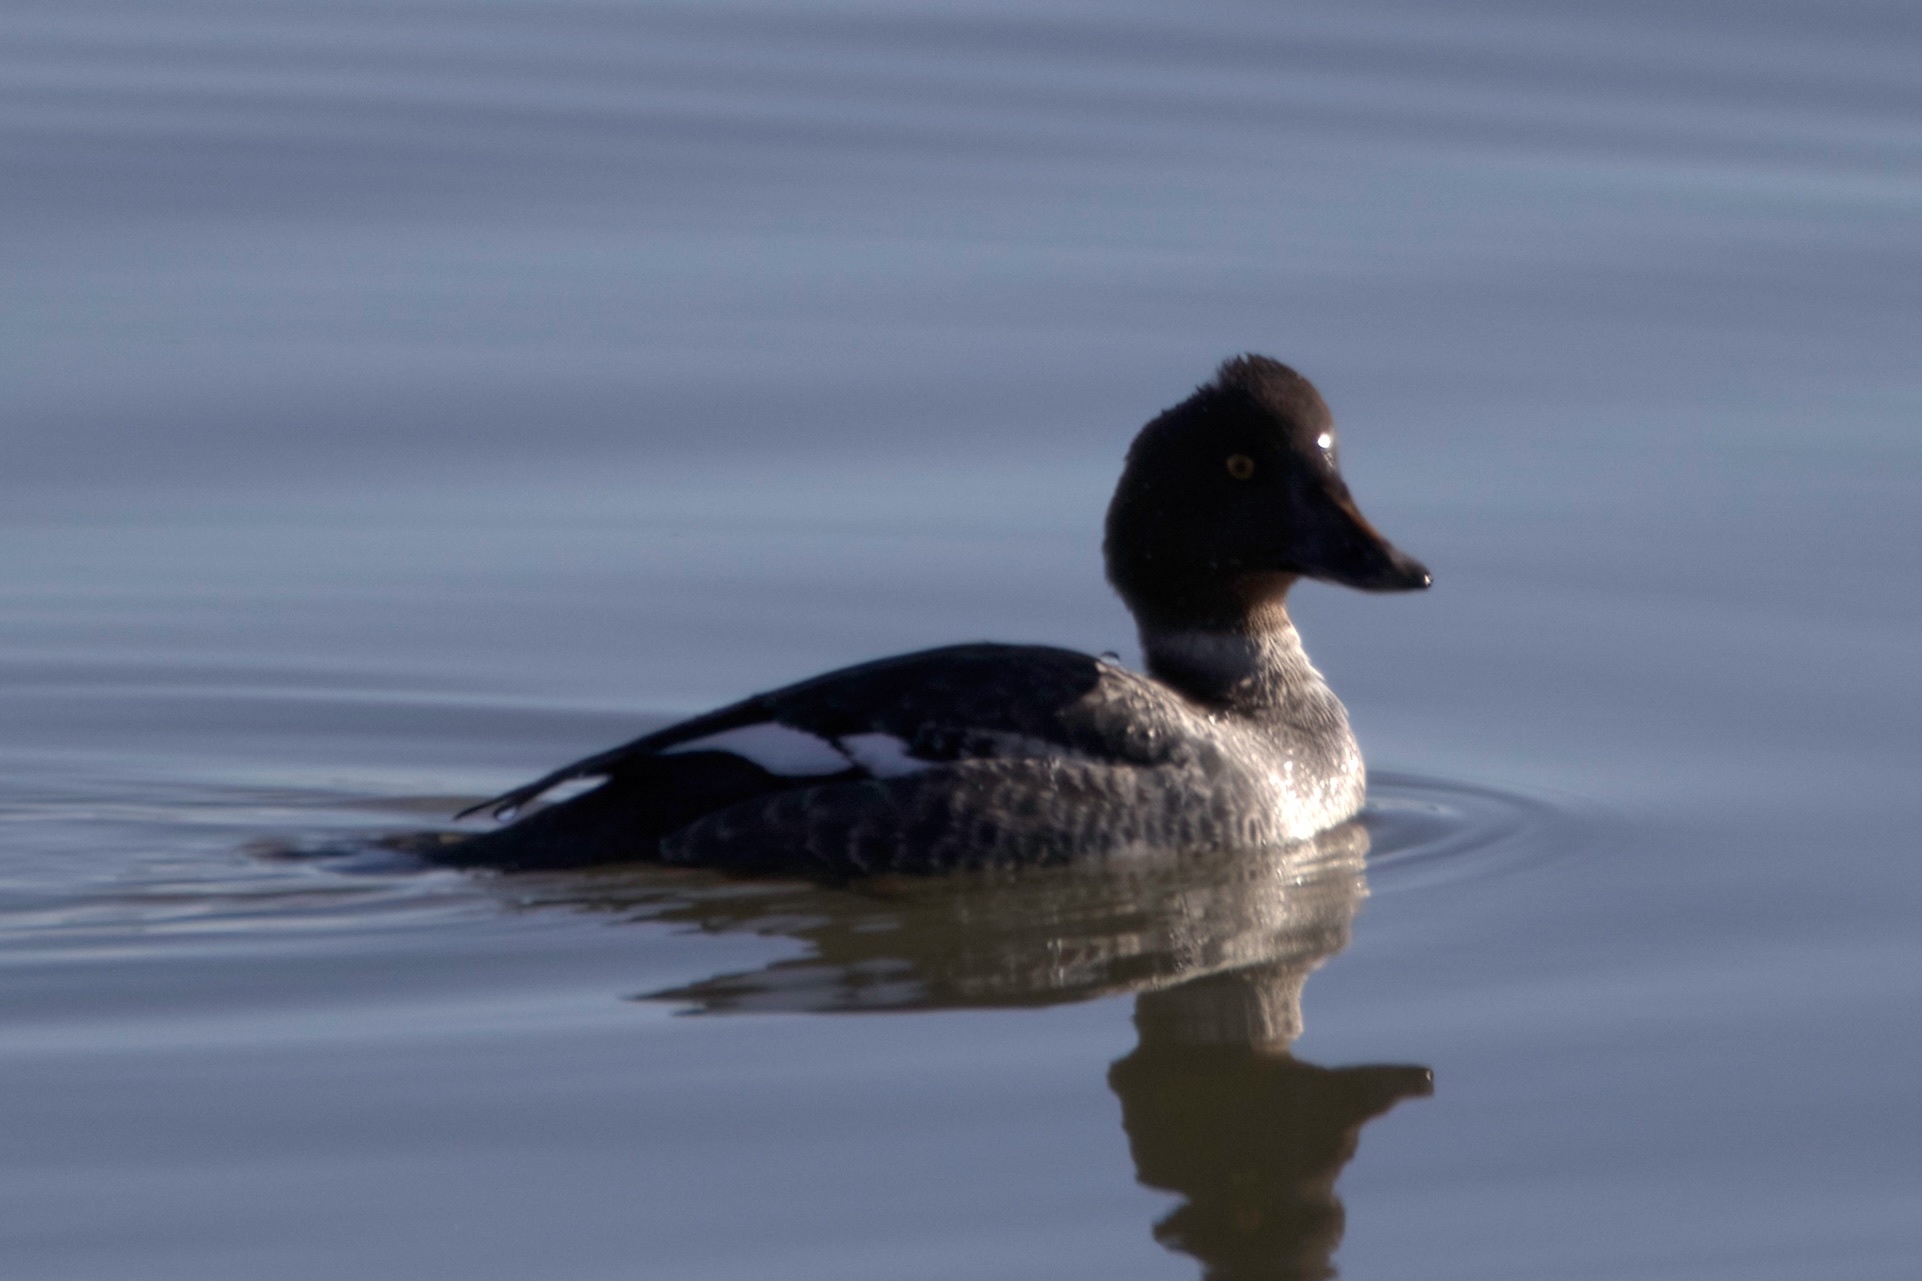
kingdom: Animalia
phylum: Chordata
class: Aves
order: Anseriformes
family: Anatidae
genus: Bucephala
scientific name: Bucephala clangula
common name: Common goldeneye
